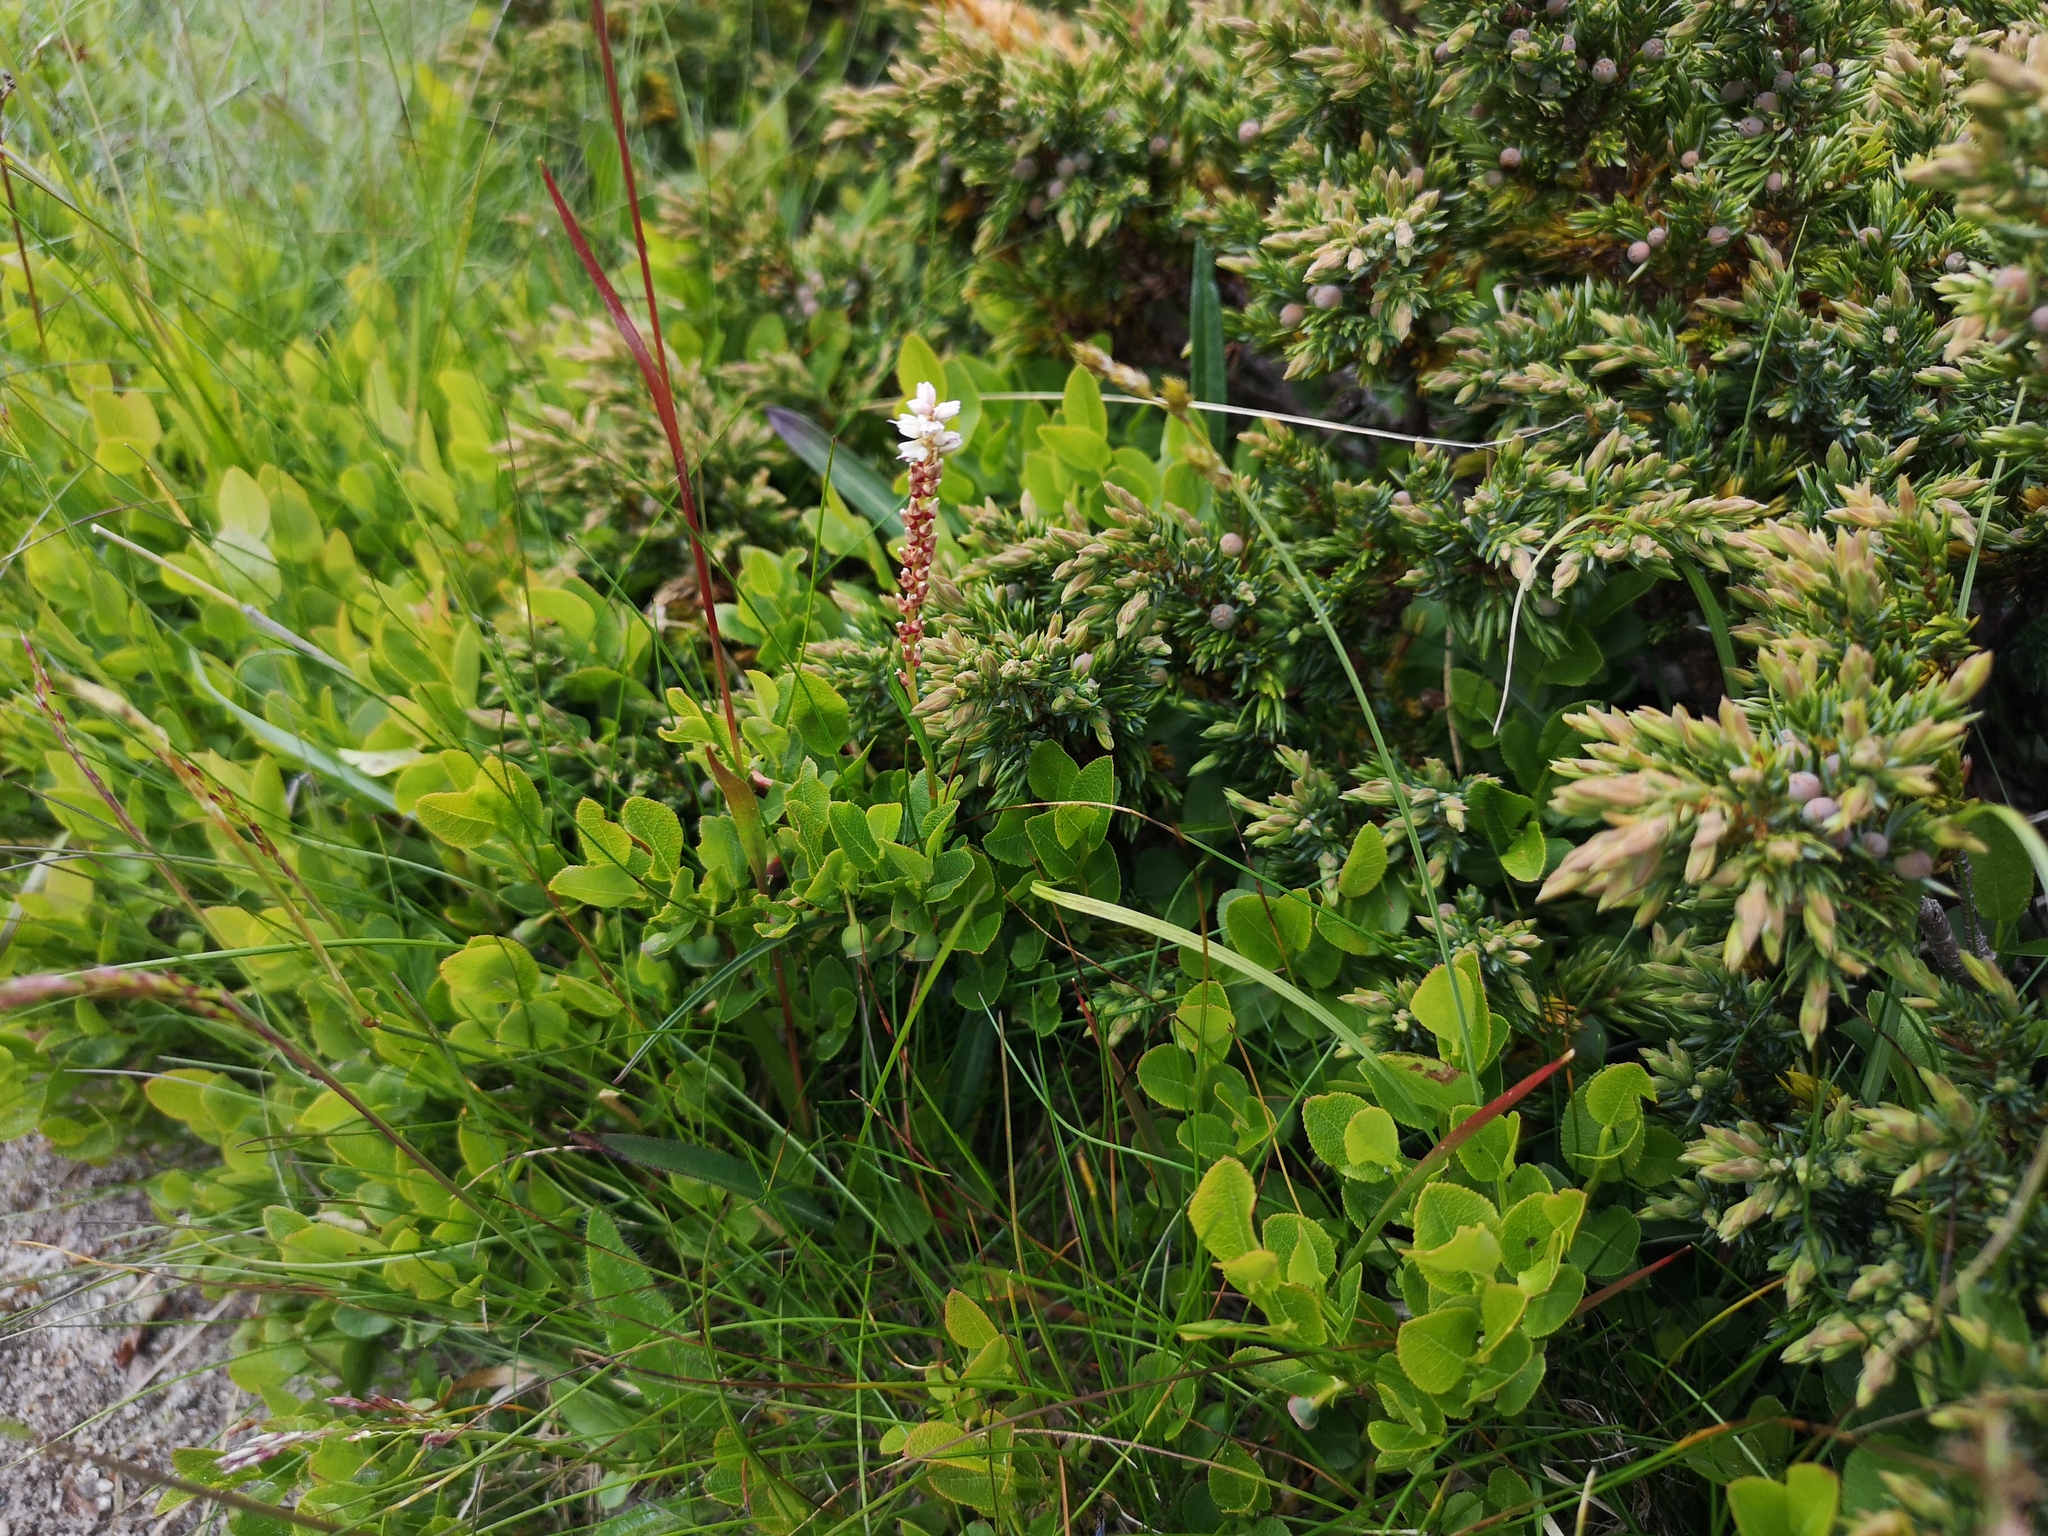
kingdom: Plantae
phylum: Tracheophyta
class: Magnoliopsida
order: Caryophyllales
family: Polygonaceae
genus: Bistorta
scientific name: Bistorta vivipara
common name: Alpine bistort
